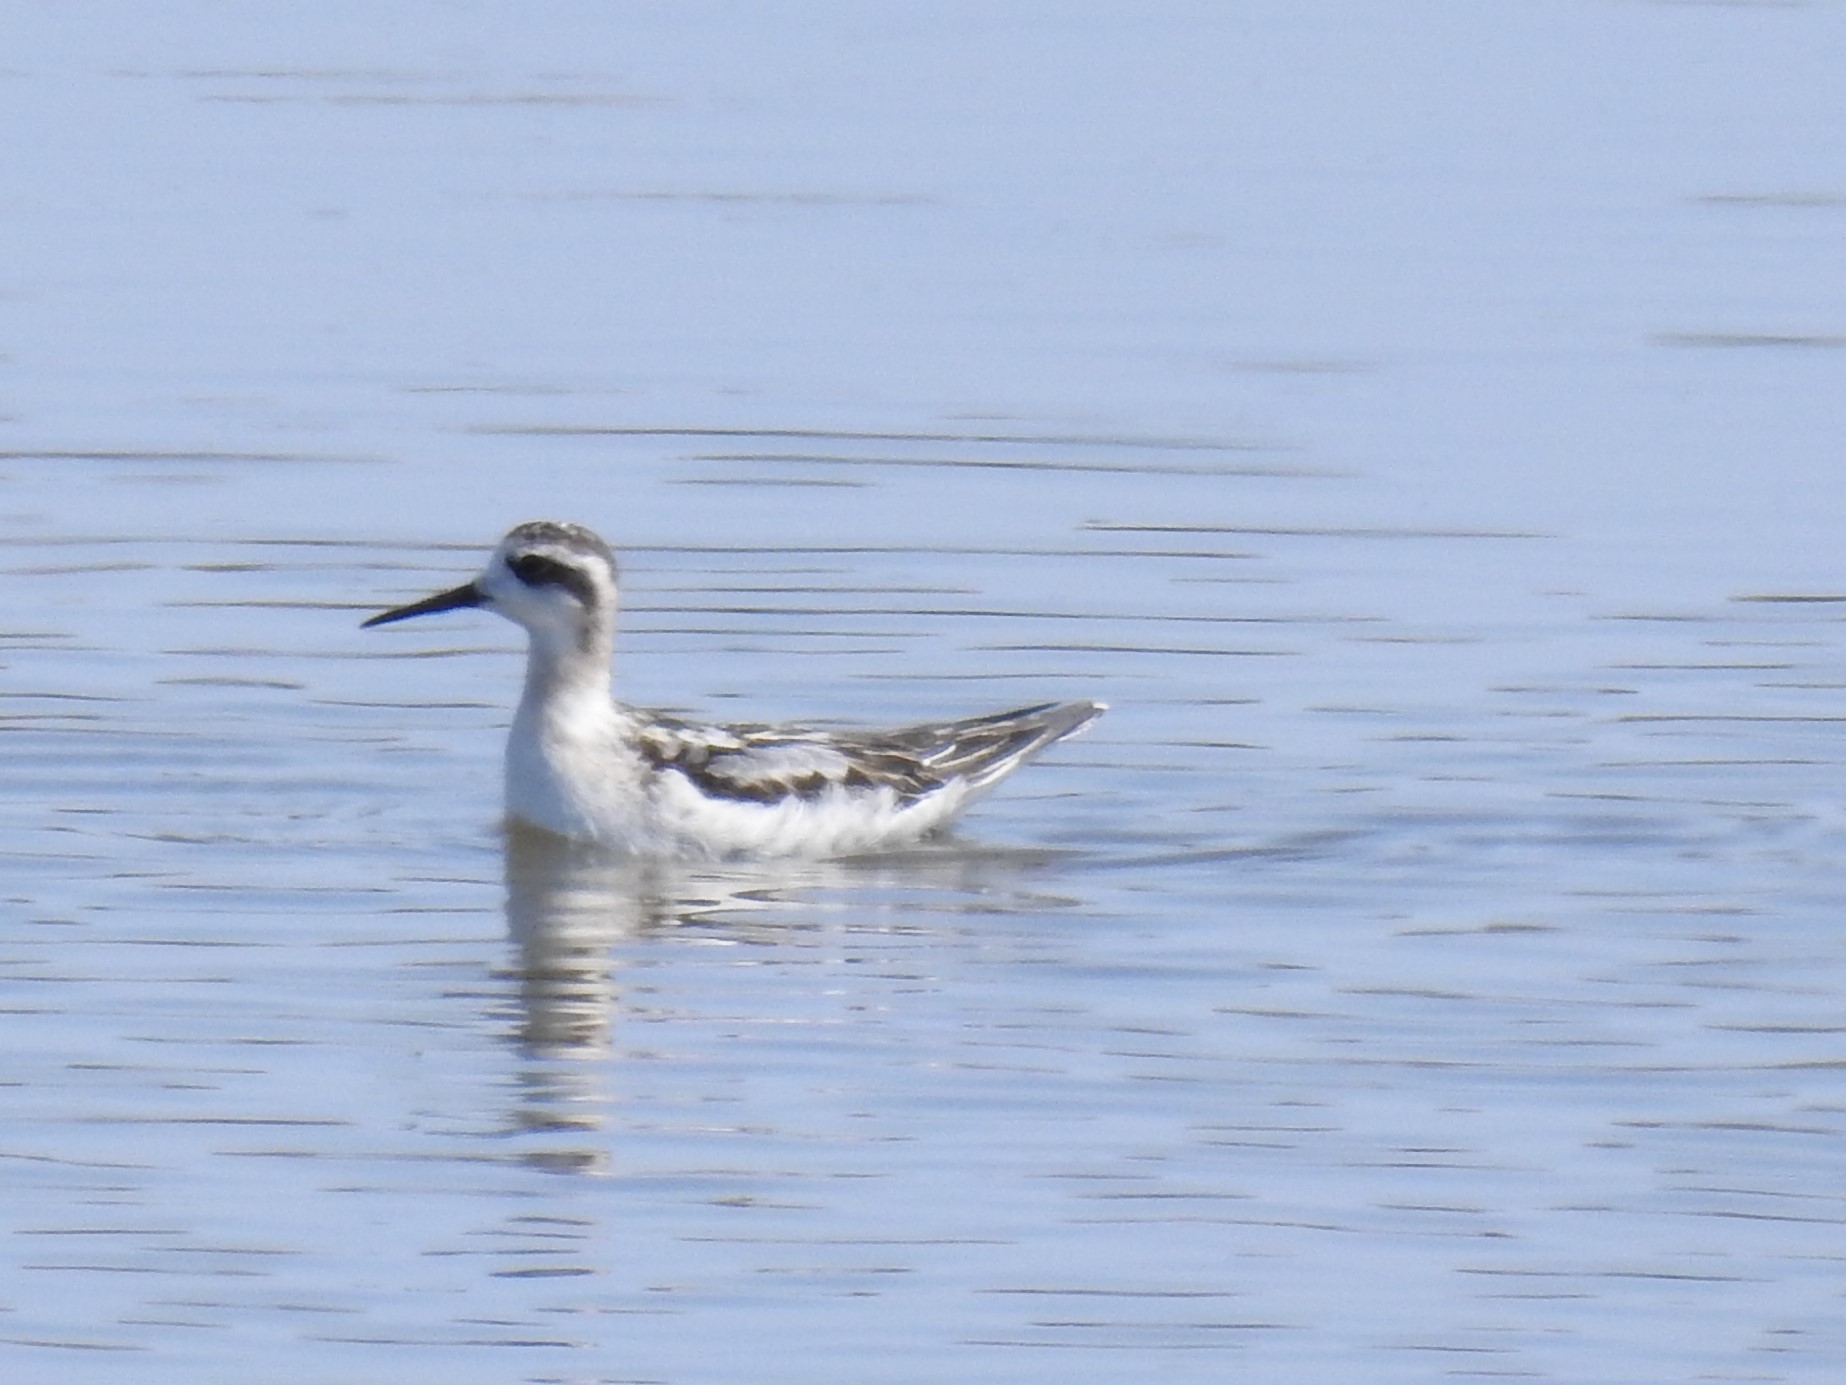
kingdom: Animalia
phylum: Chordata
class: Aves
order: Charadriiformes
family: Scolopacidae
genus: Phalaropus
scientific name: Phalaropus lobatus
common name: Red-necked phalarope
